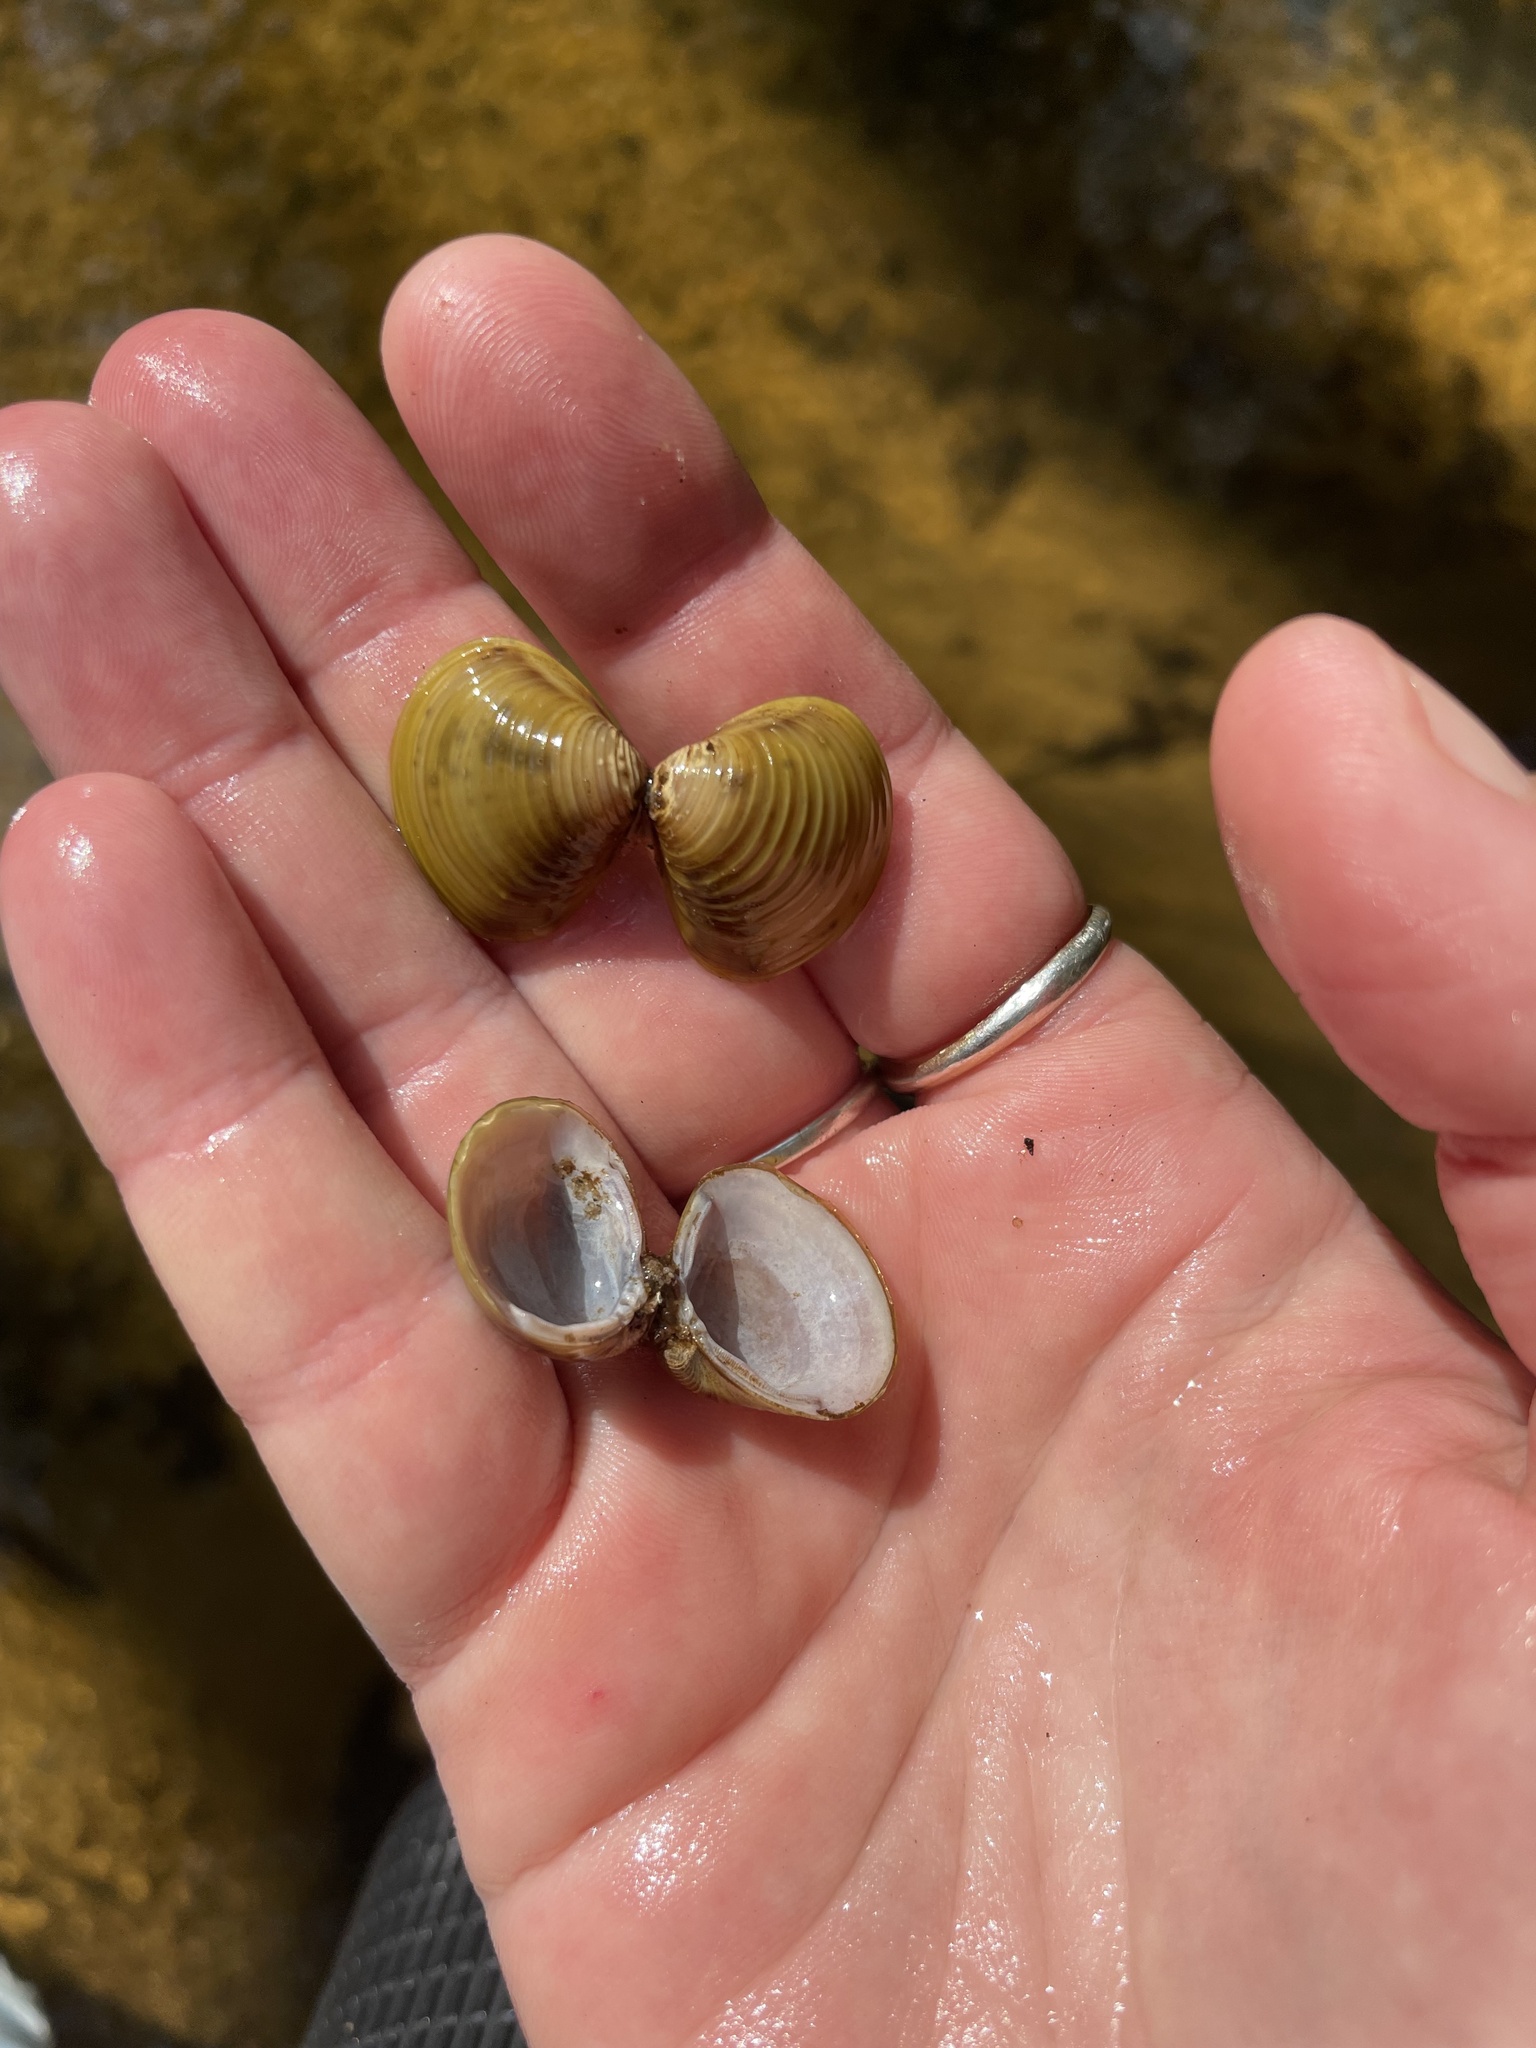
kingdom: Animalia
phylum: Mollusca
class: Bivalvia
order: Venerida
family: Cyrenidae
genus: Corbicula
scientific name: Corbicula fluminea
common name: Asian clam
